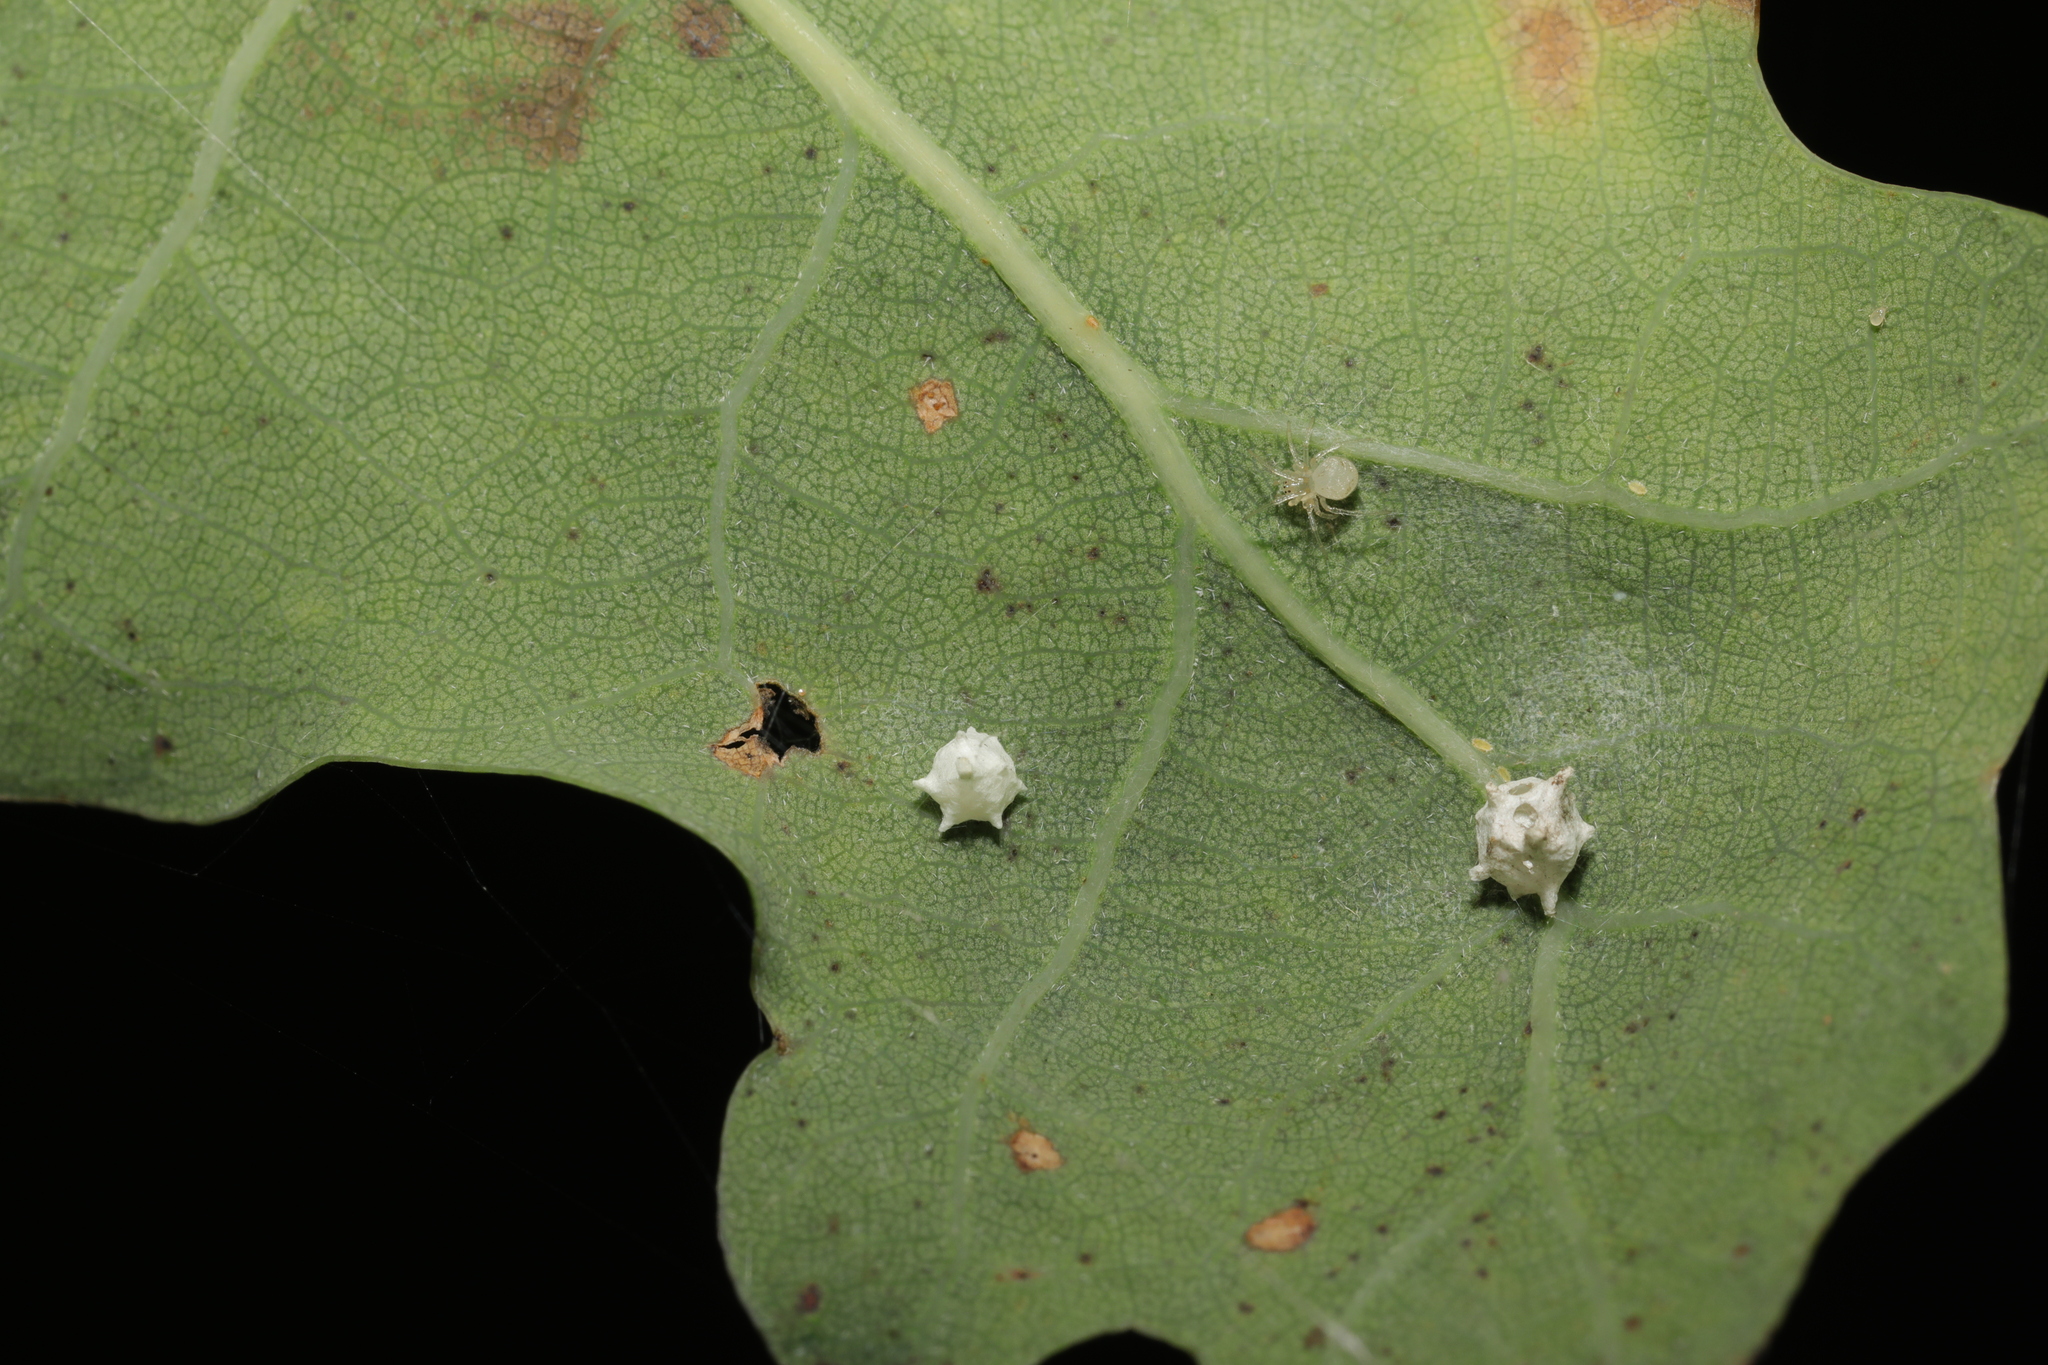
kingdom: Animalia
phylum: Arthropoda
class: Arachnida
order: Araneae
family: Theridiidae
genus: Paidiscura
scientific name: Paidiscura pallens
